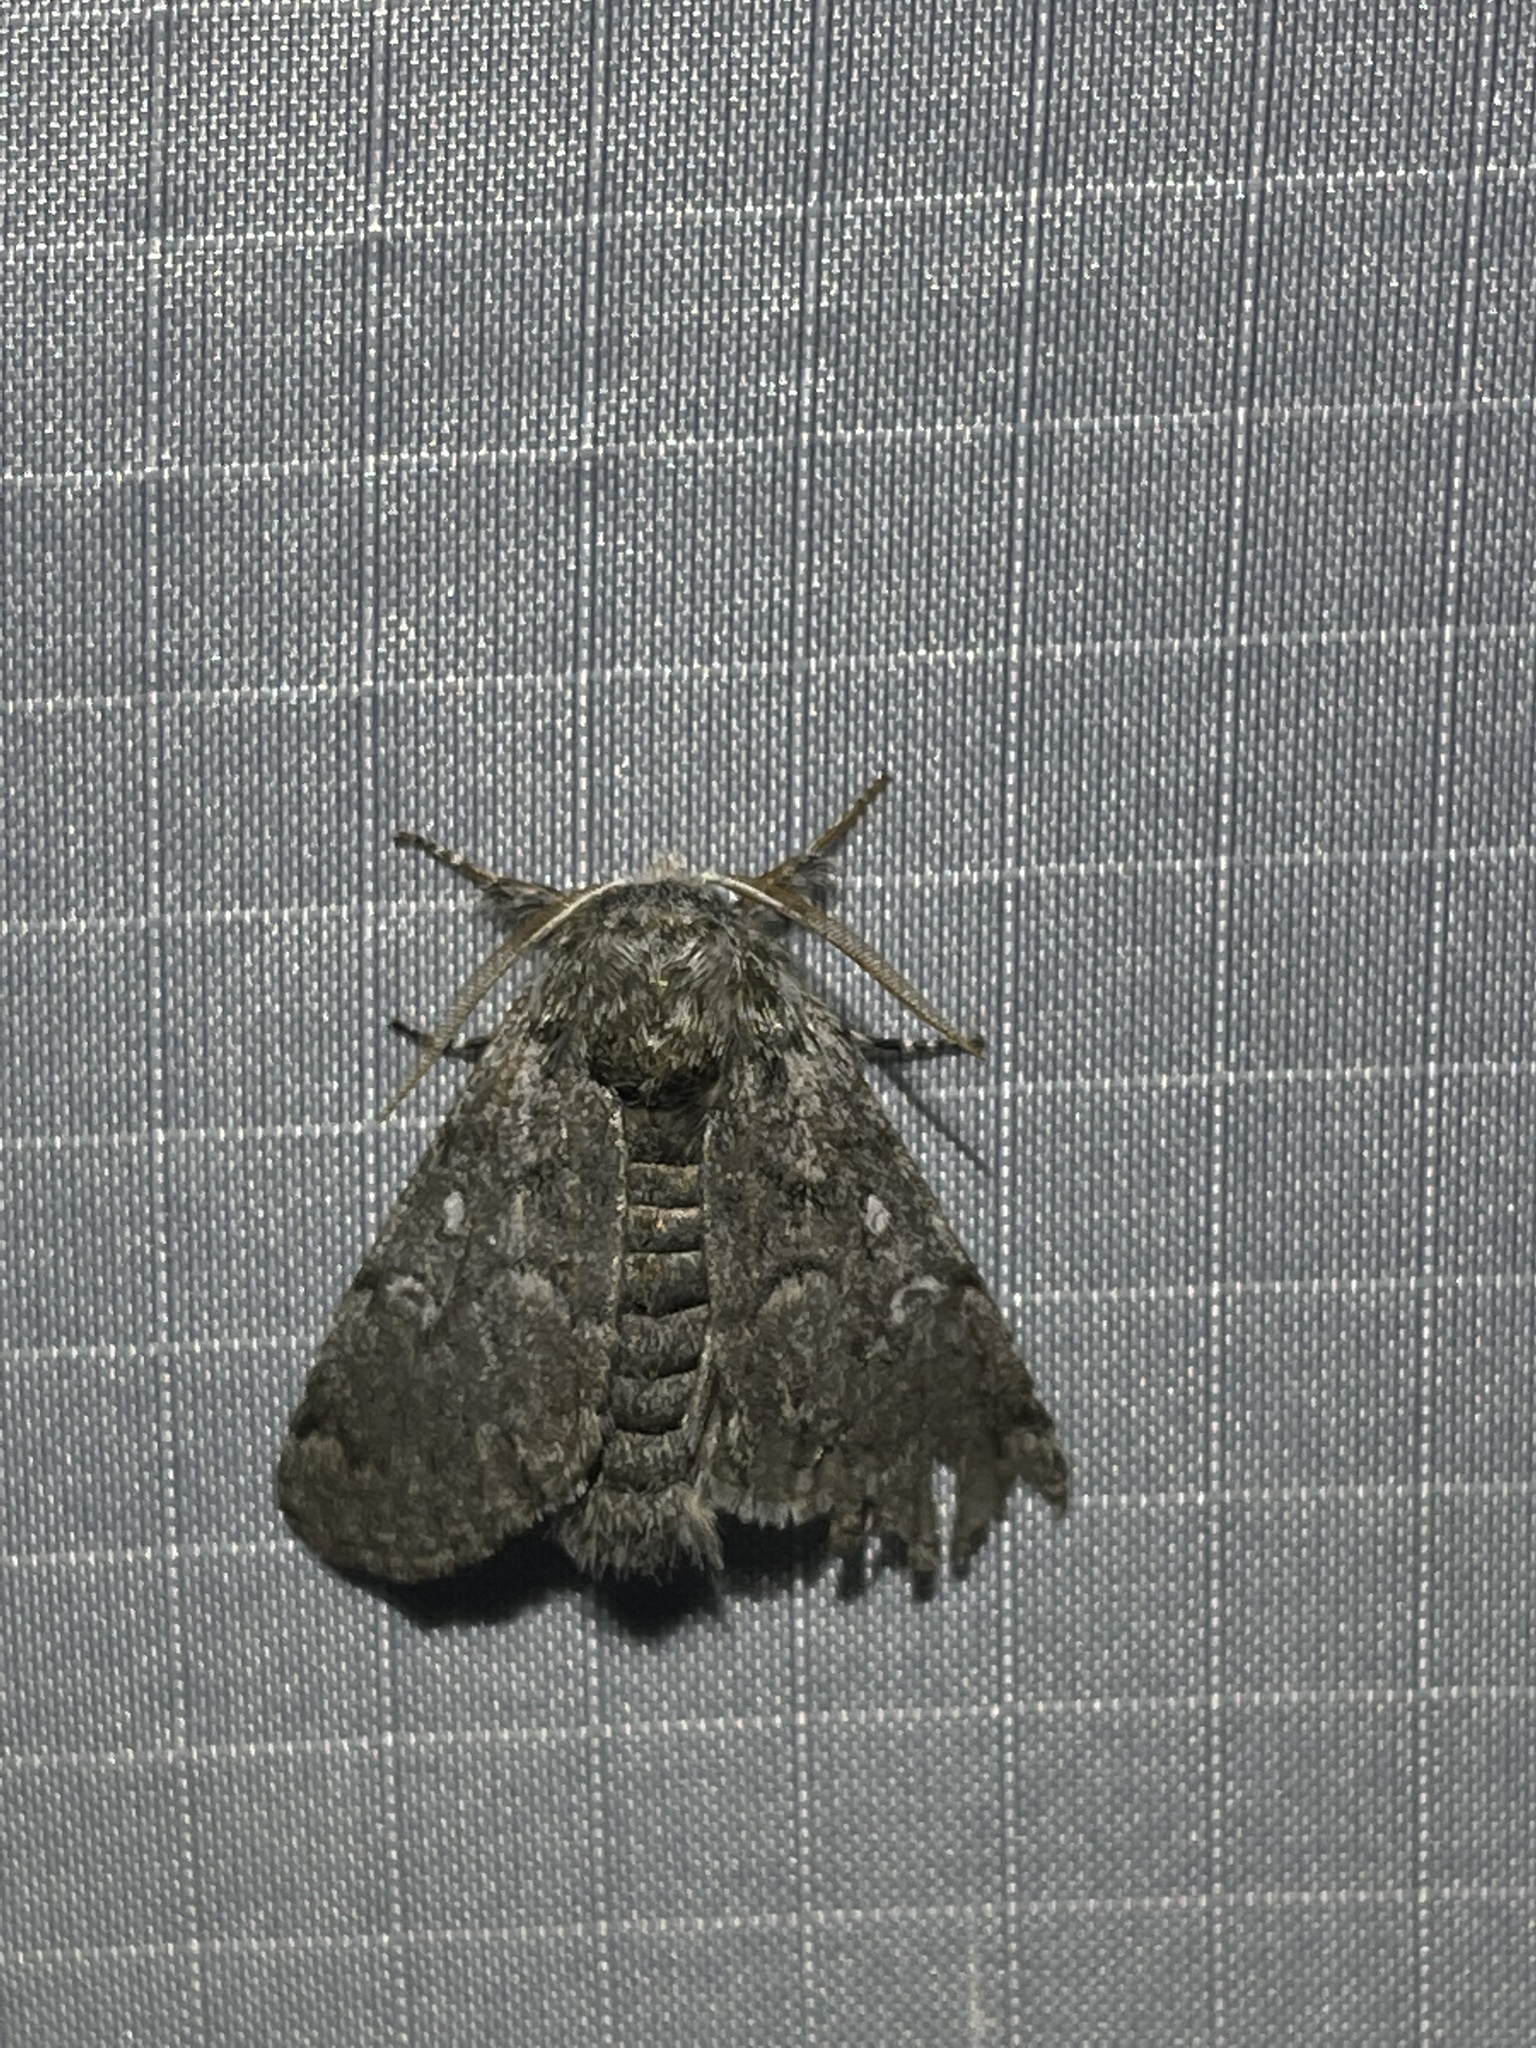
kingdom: Animalia
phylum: Arthropoda
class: Insecta
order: Lepidoptera
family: Noctuidae
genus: Colocasia
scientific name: Colocasia propinquilinea
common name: Close-banded demas
